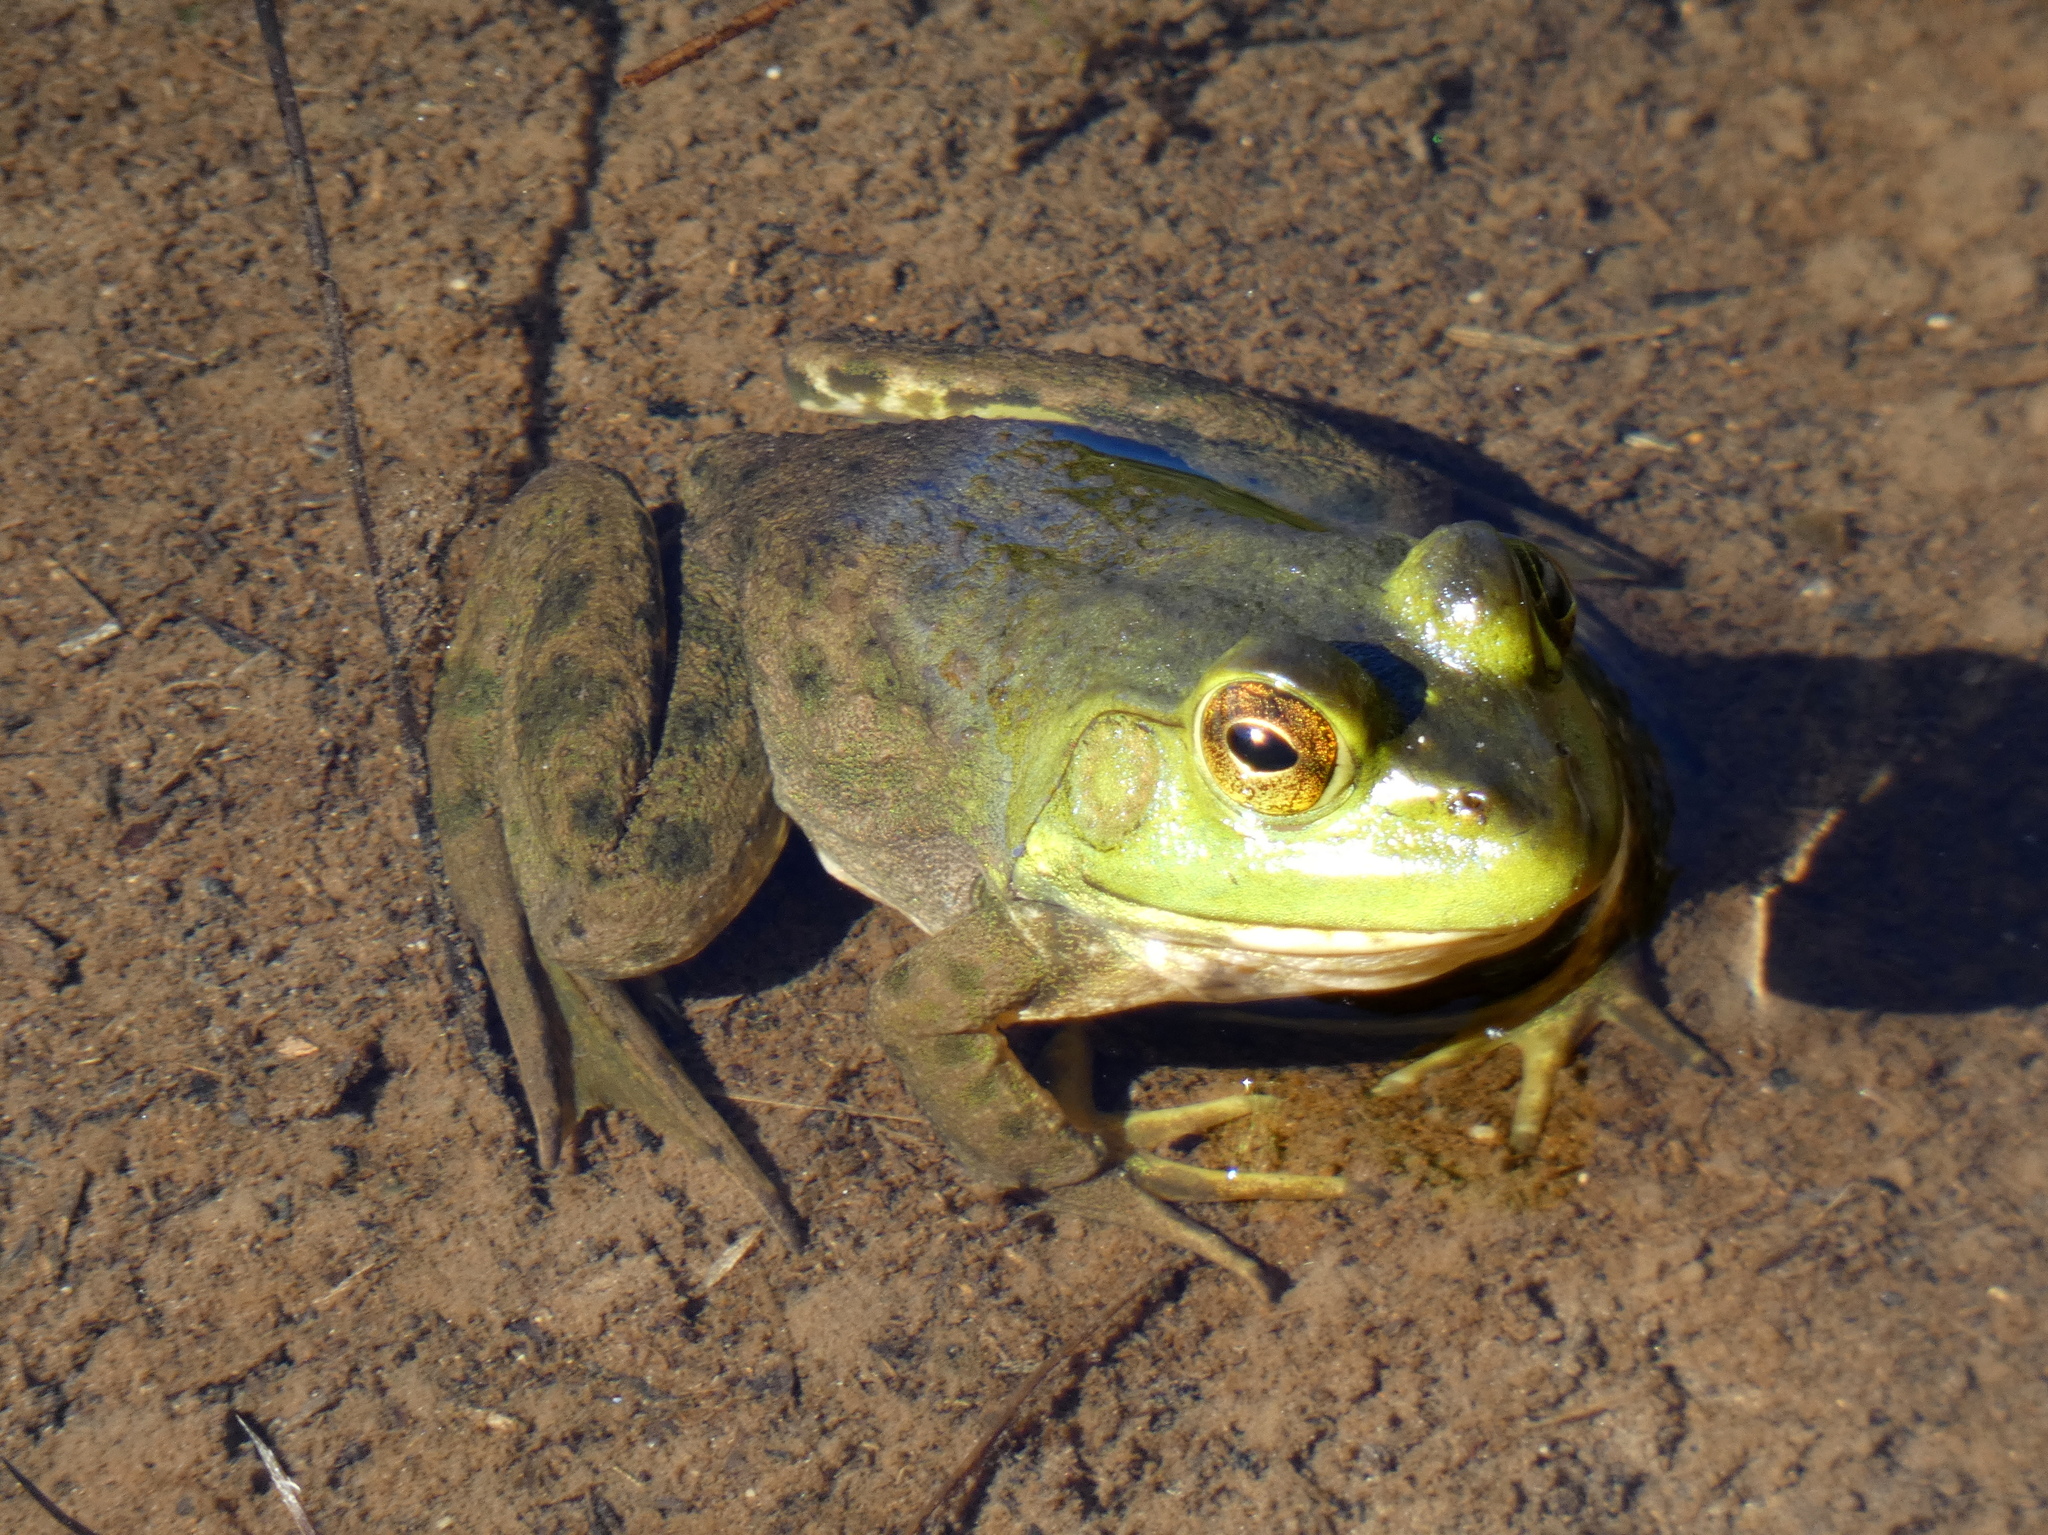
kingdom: Animalia
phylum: Chordata
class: Amphibia
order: Anura
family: Ranidae
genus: Lithobates
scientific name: Lithobates catesbeianus
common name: American bullfrog
